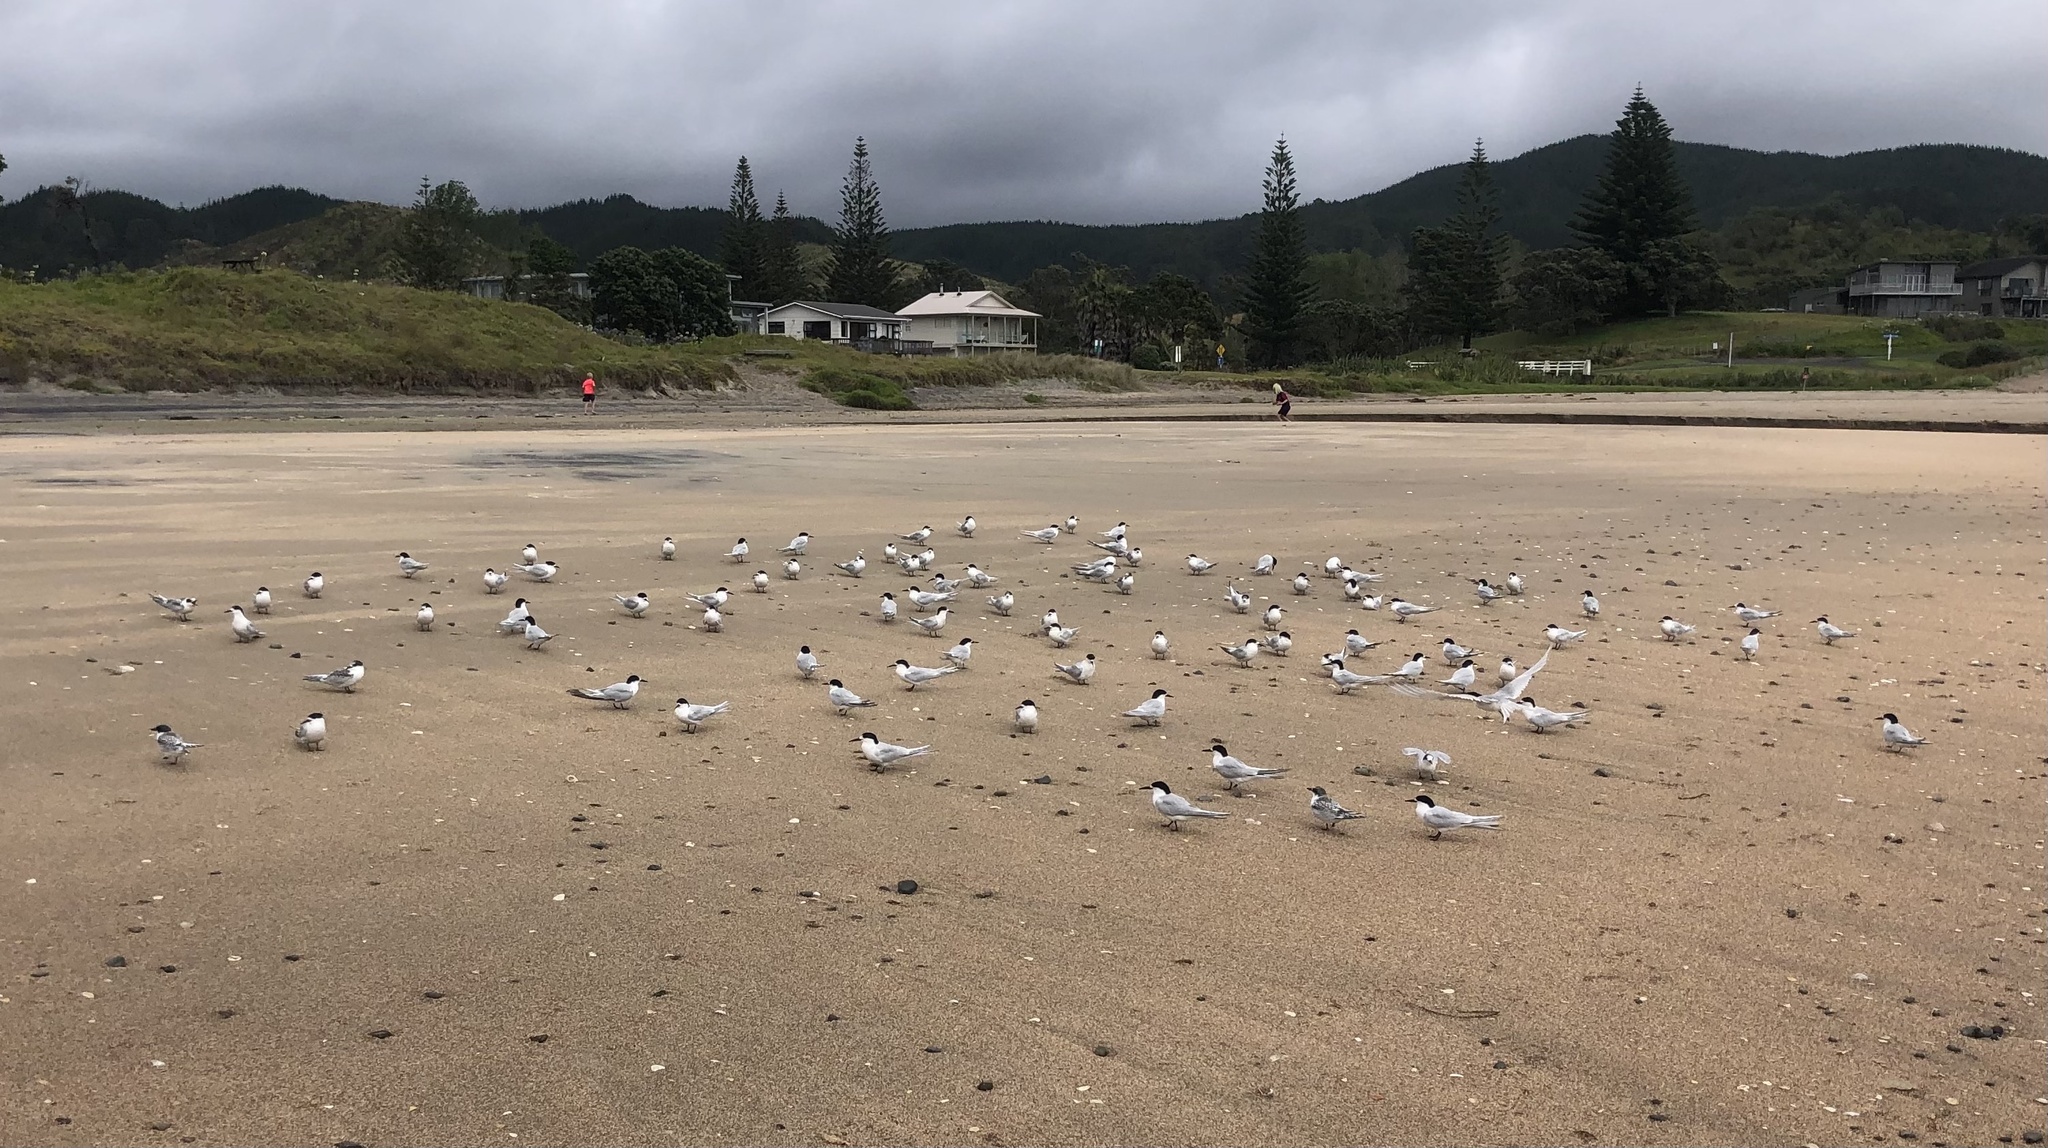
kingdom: Animalia
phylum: Chordata
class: Aves
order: Charadriiformes
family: Laridae
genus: Sterna
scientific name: Sterna striata
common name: White-fronted tern
